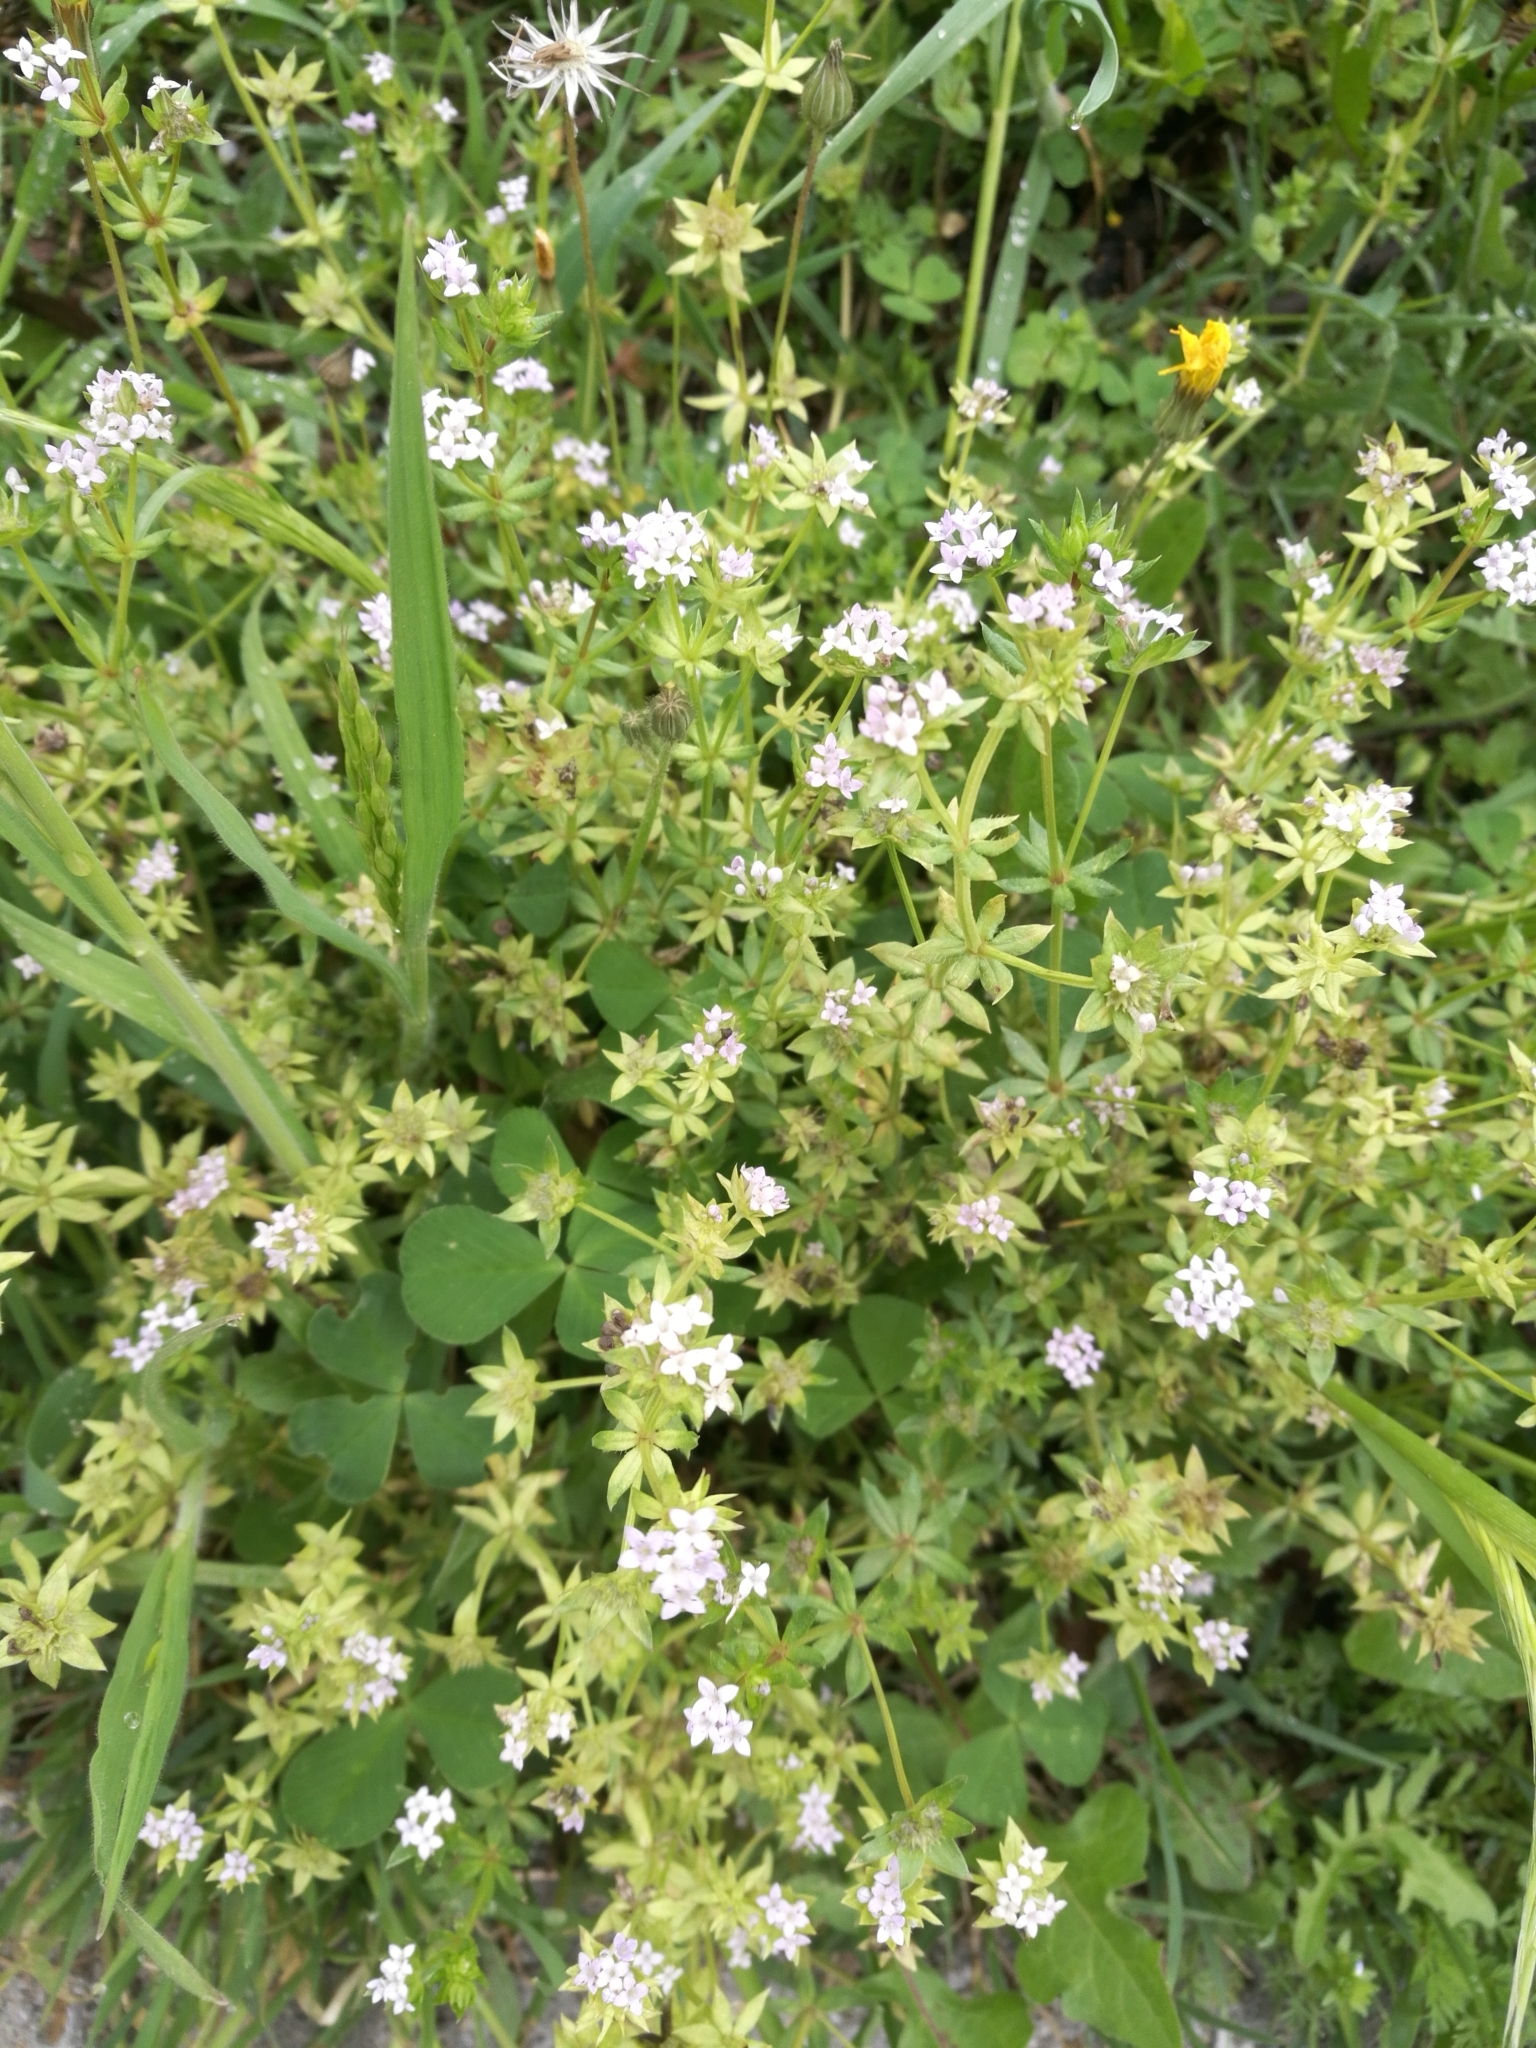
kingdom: Plantae
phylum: Tracheophyta
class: Magnoliopsida
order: Gentianales
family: Rubiaceae
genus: Sherardia
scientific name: Sherardia arvensis
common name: Field madder
